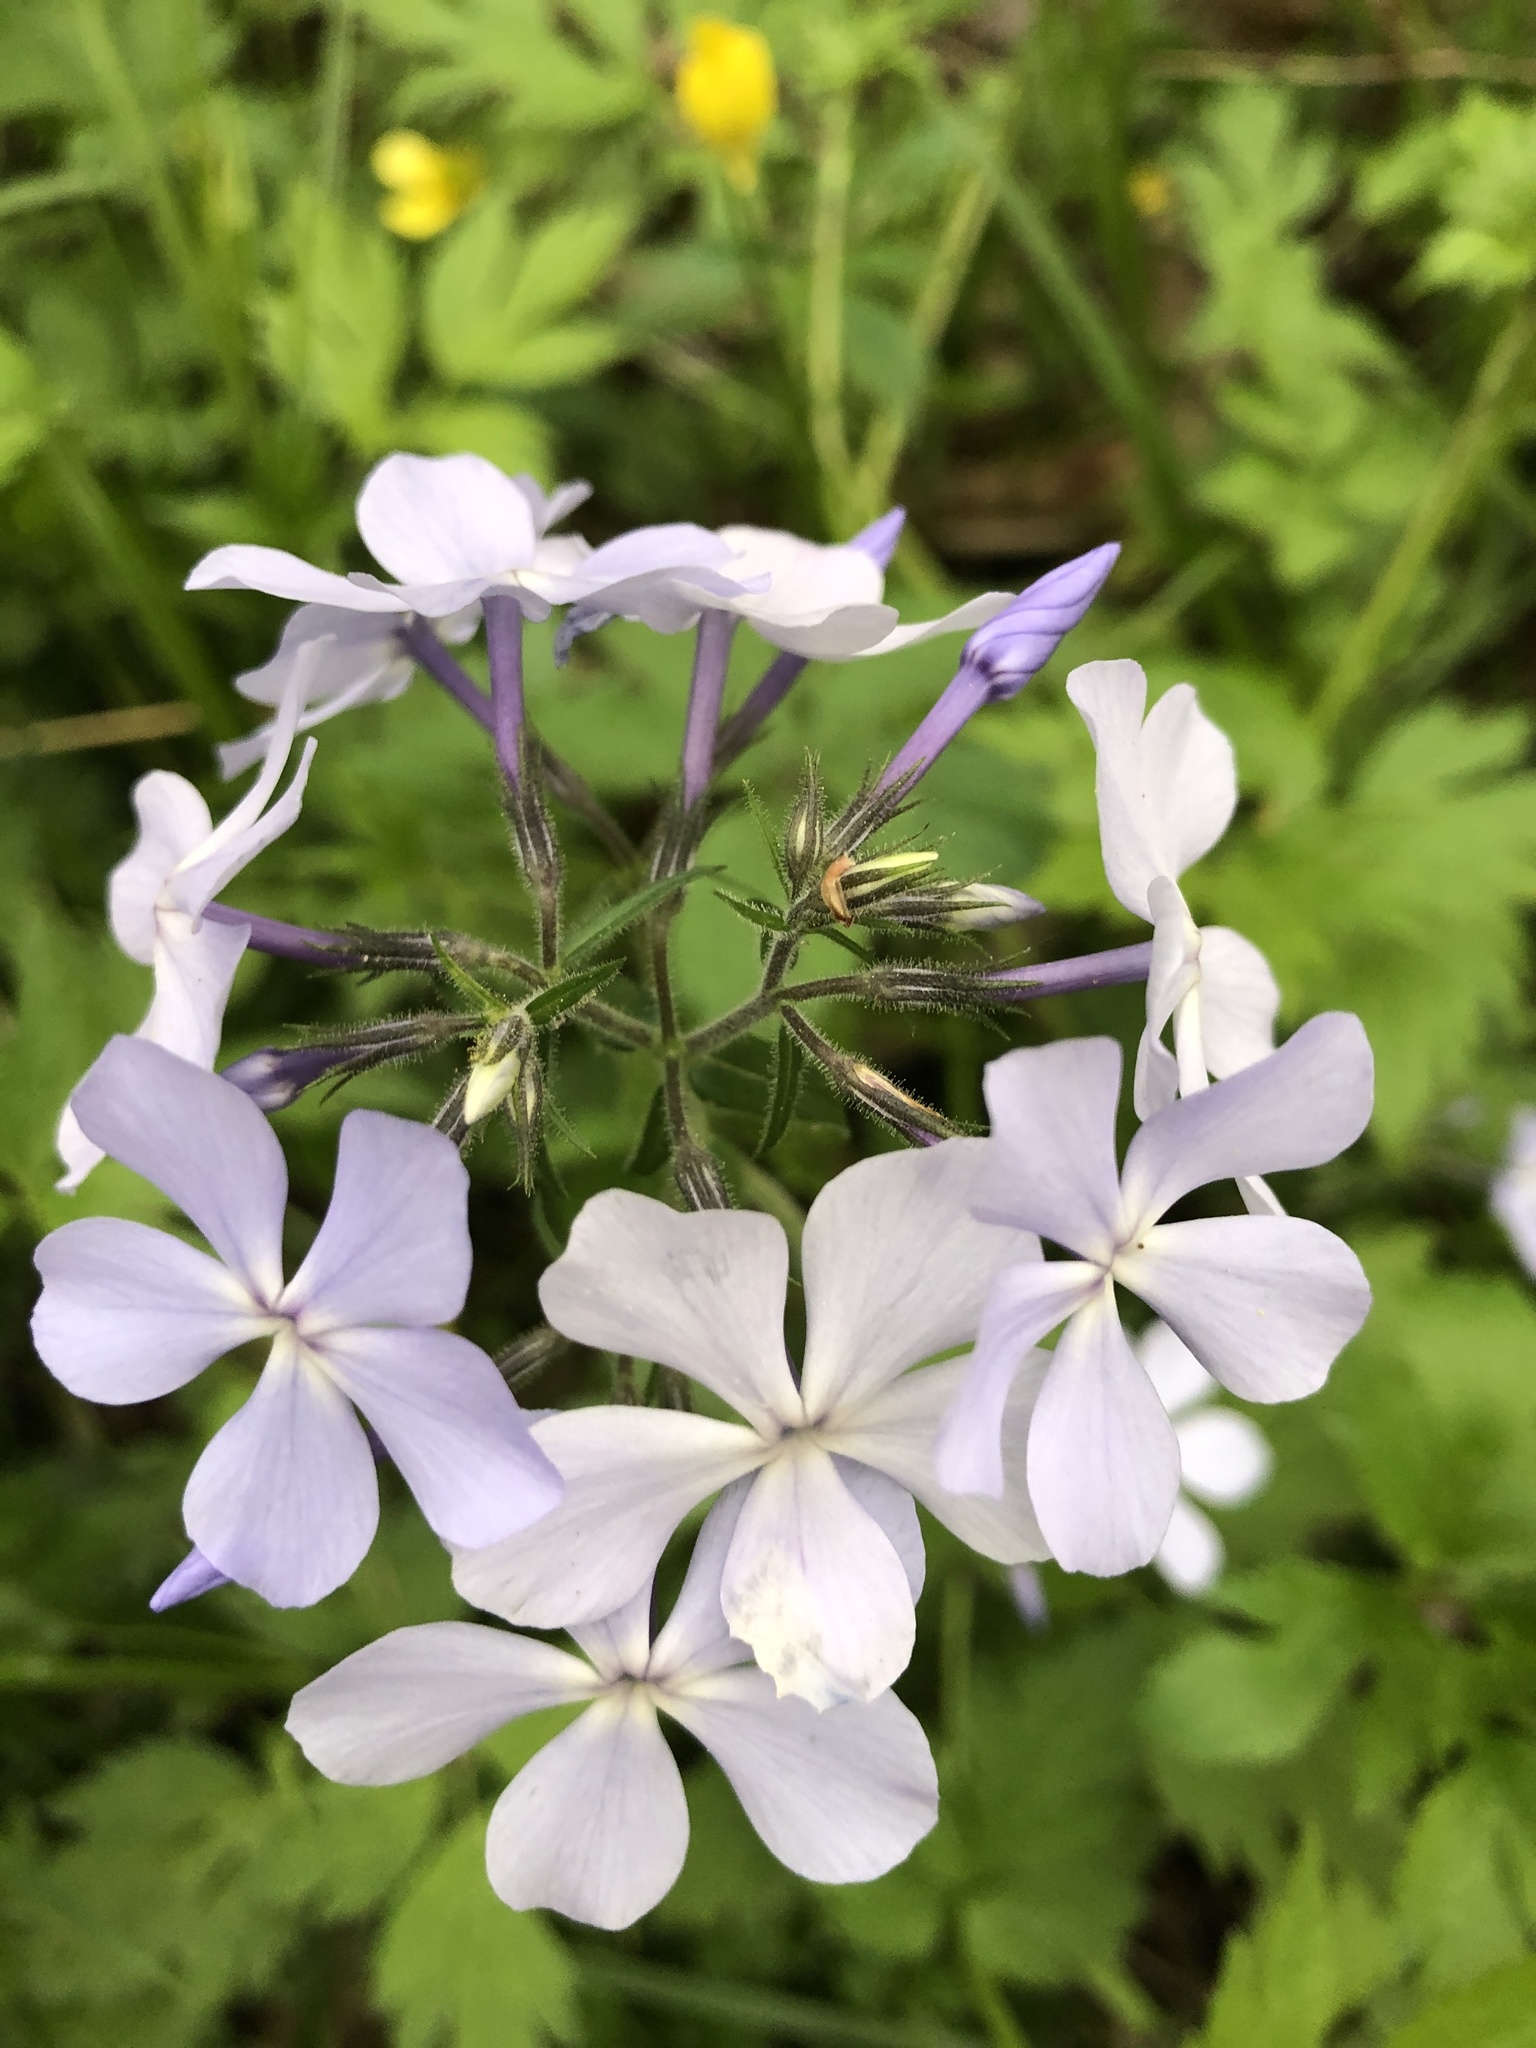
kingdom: Plantae
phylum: Tracheophyta
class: Magnoliopsida
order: Ericales
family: Polemoniaceae
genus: Phlox
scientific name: Phlox divaricata
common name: Blue phlox
